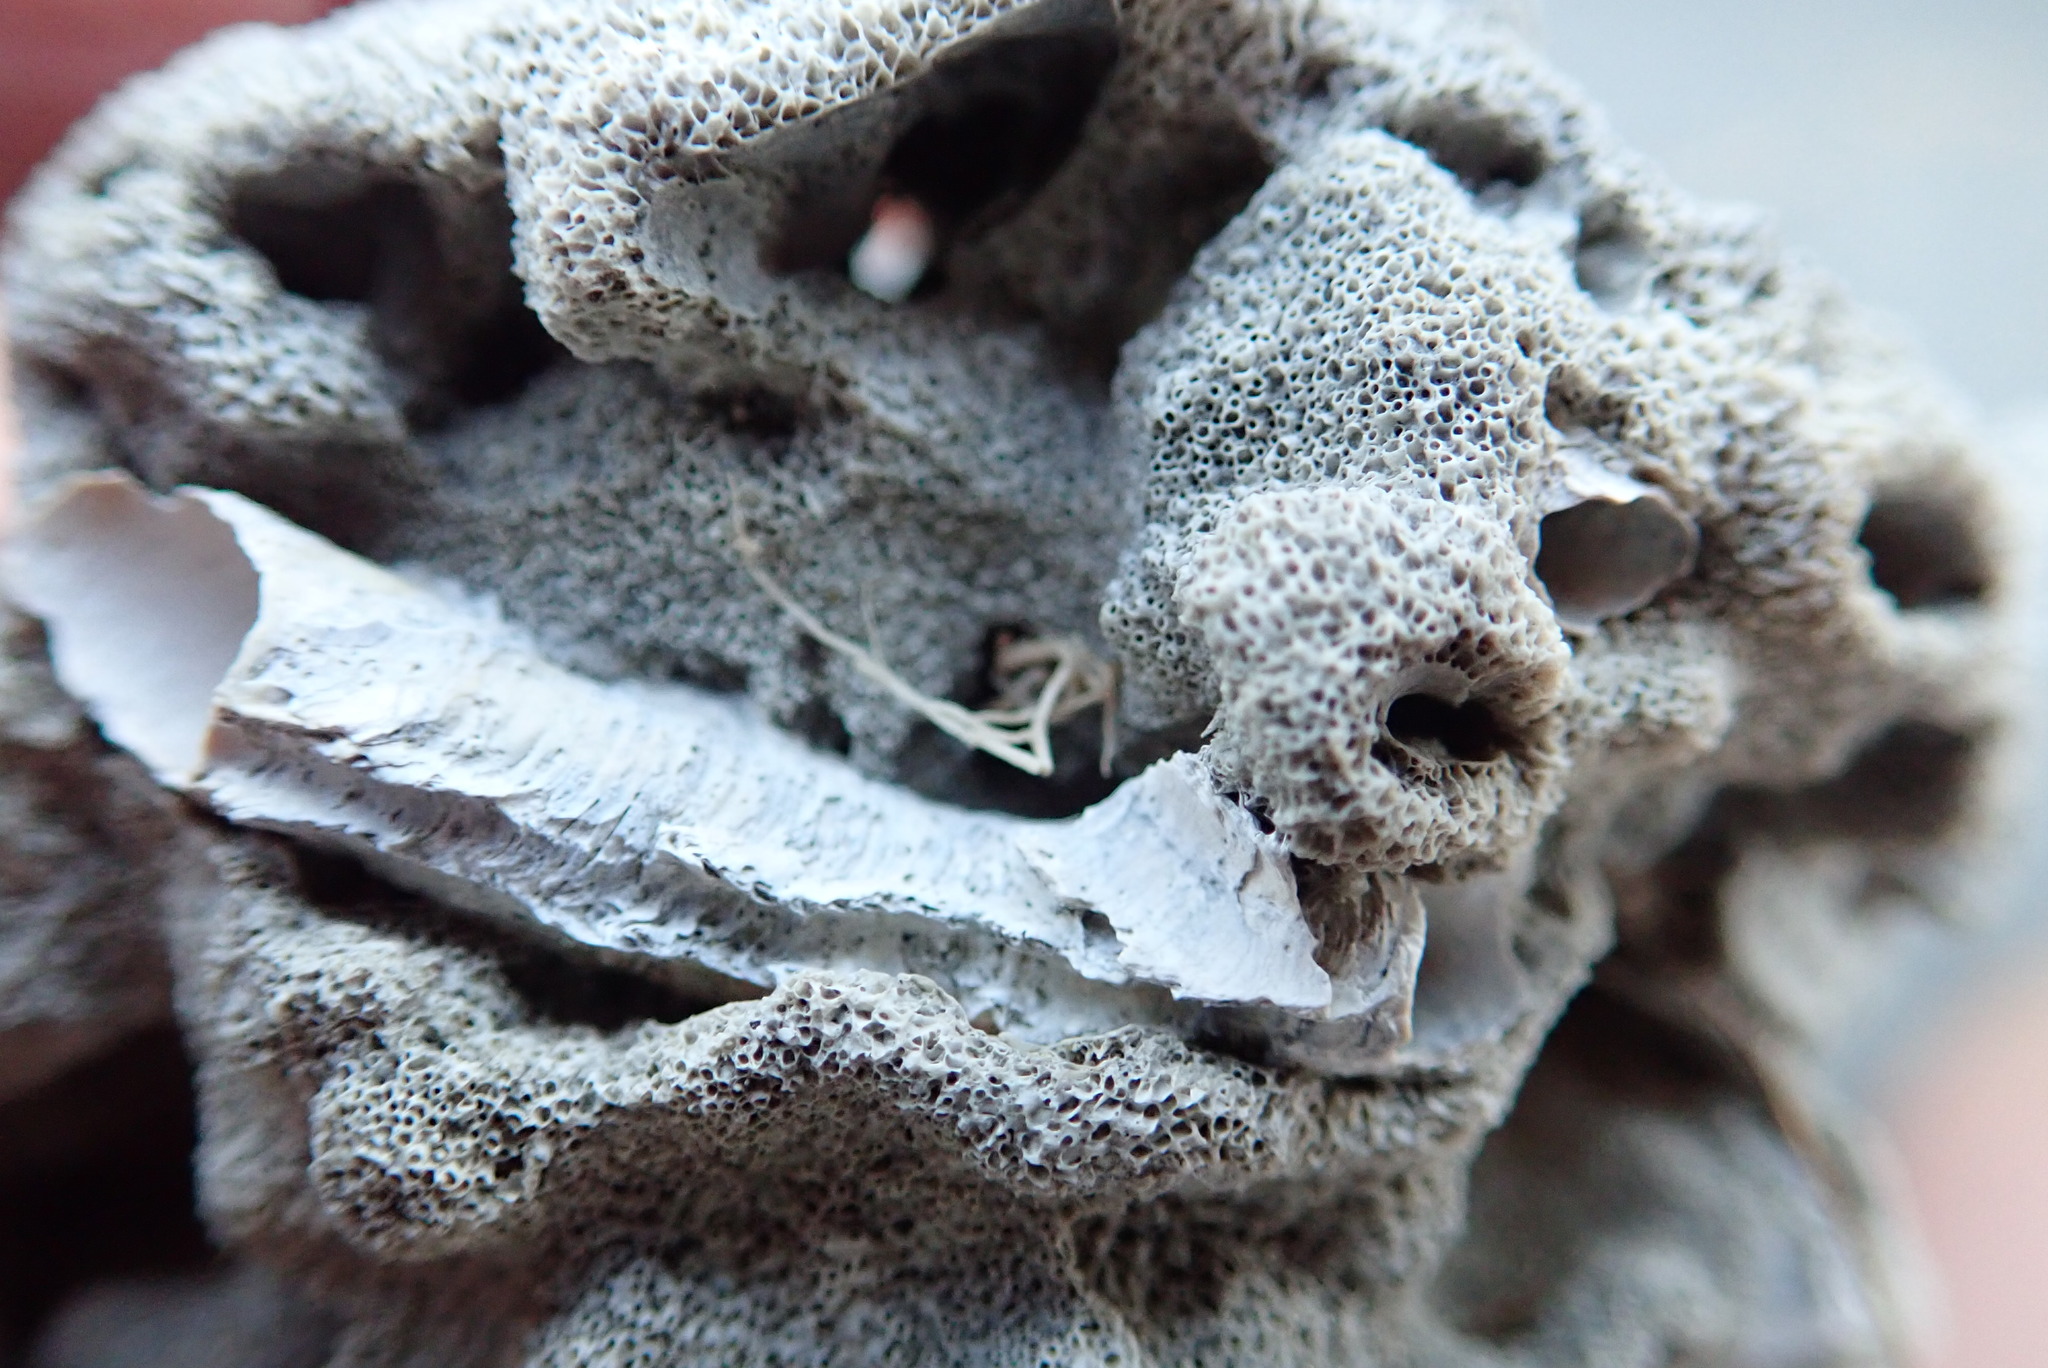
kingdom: Animalia
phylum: Annelida
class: Polychaeta
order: Sabellida
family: Serpulidae
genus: Galeolaria
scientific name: Galeolaria hystrix
